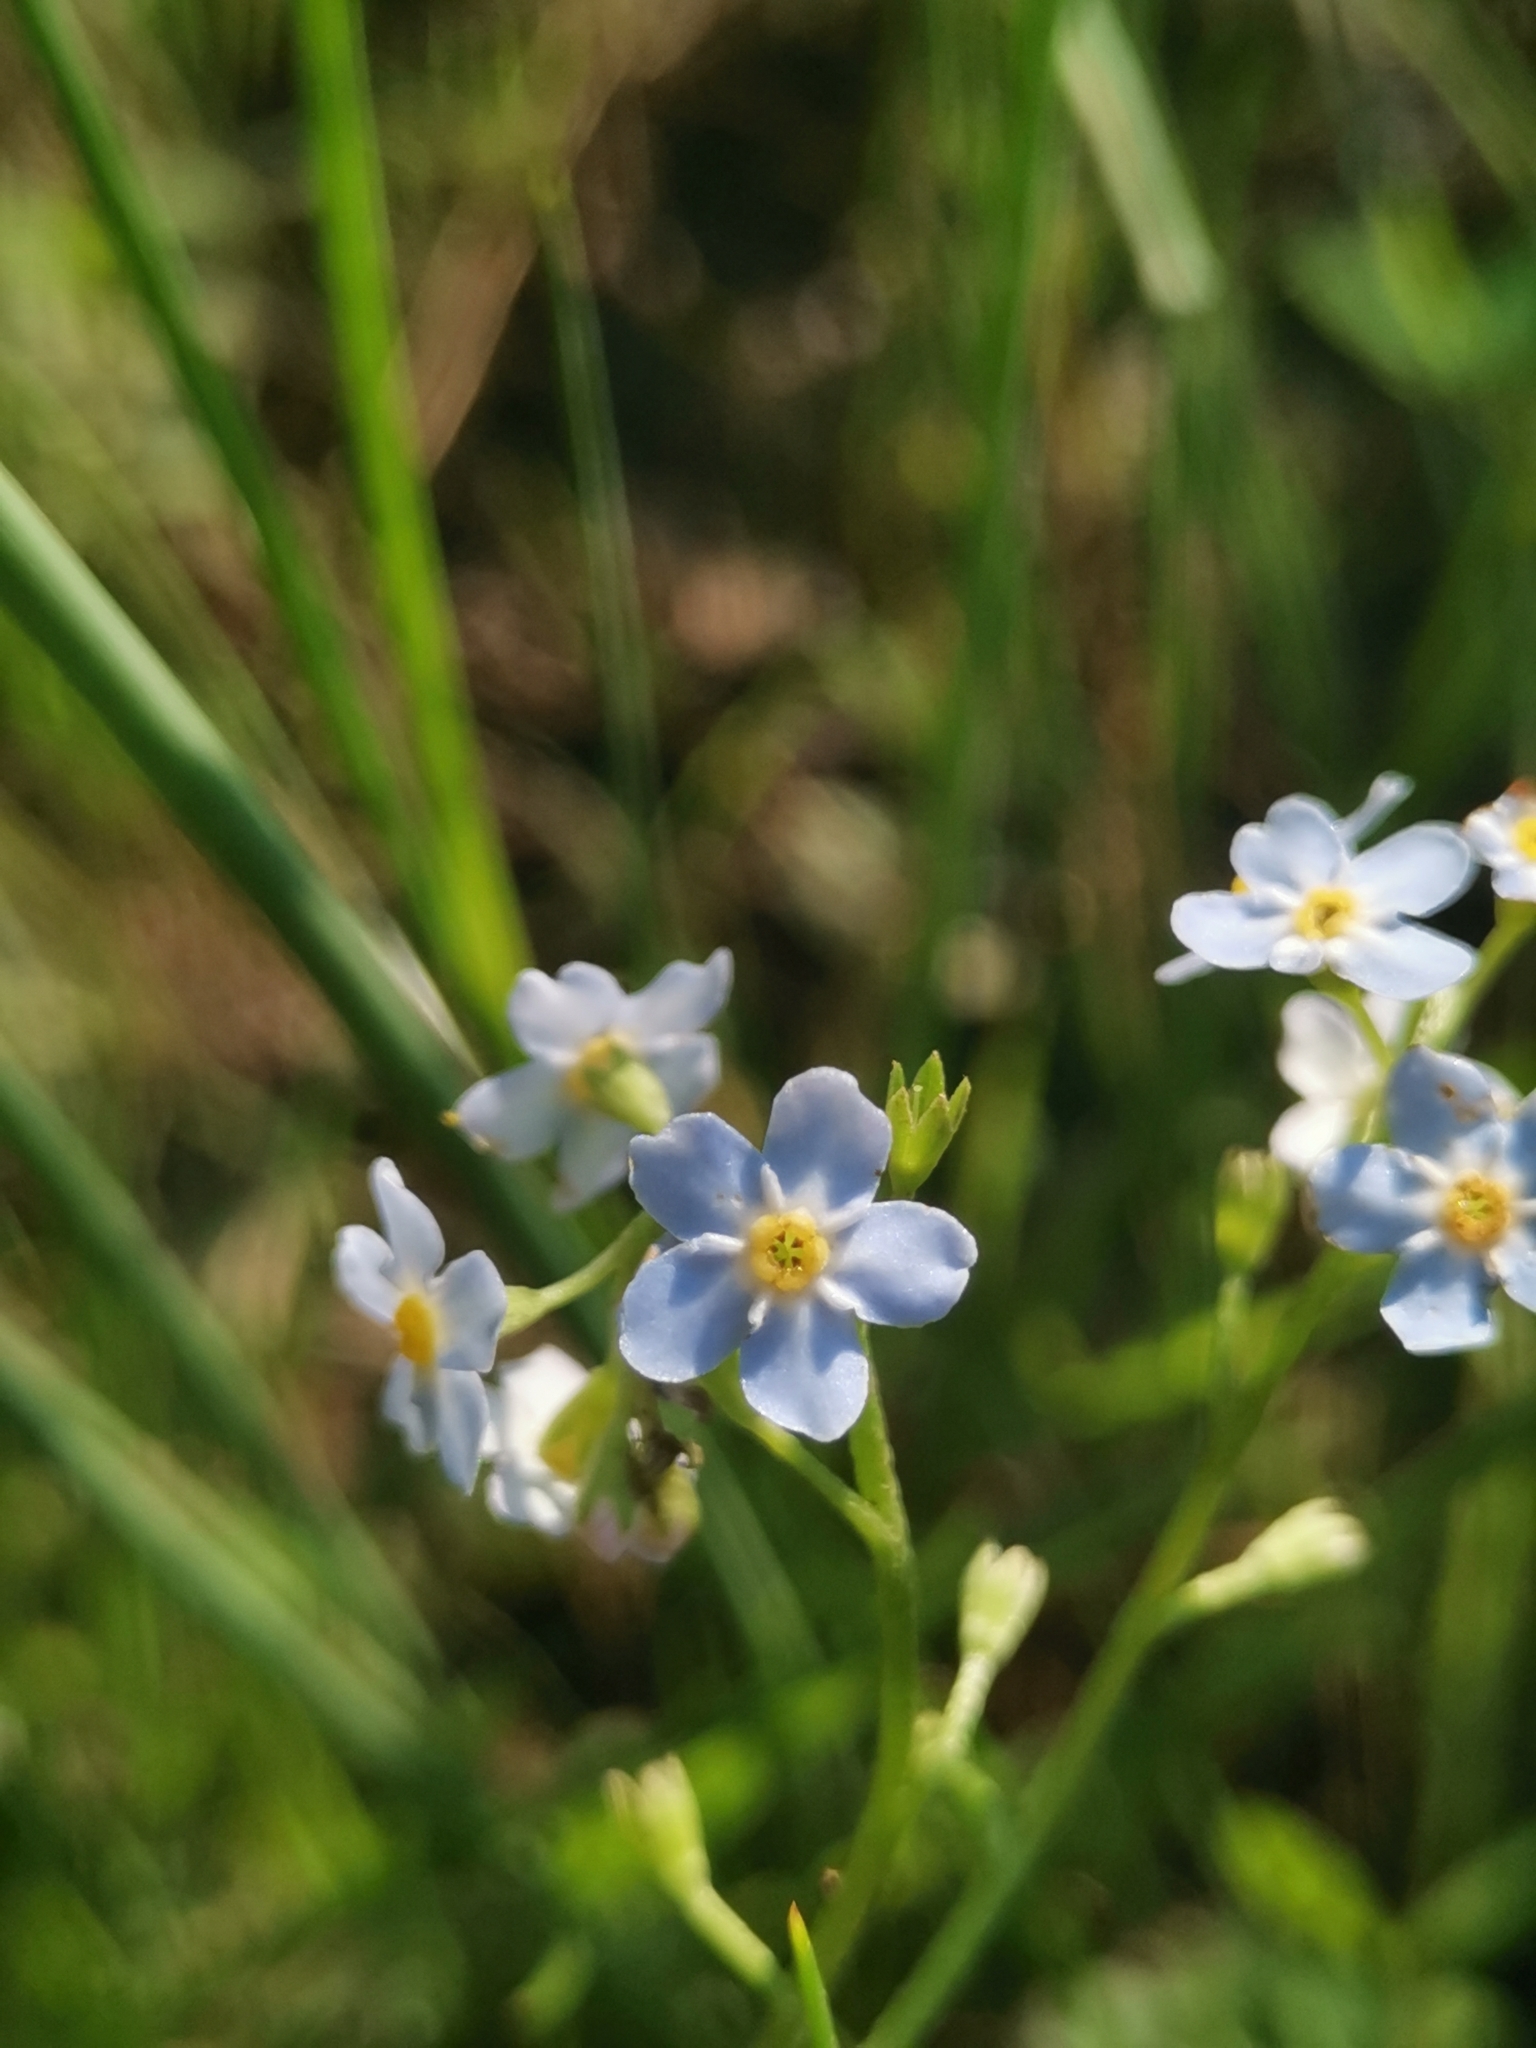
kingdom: Plantae
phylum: Tracheophyta
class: Magnoliopsida
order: Boraginales
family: Boraginaceae
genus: Myosotis
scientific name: Myosotis scorpioides
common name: Water forget-me-not
